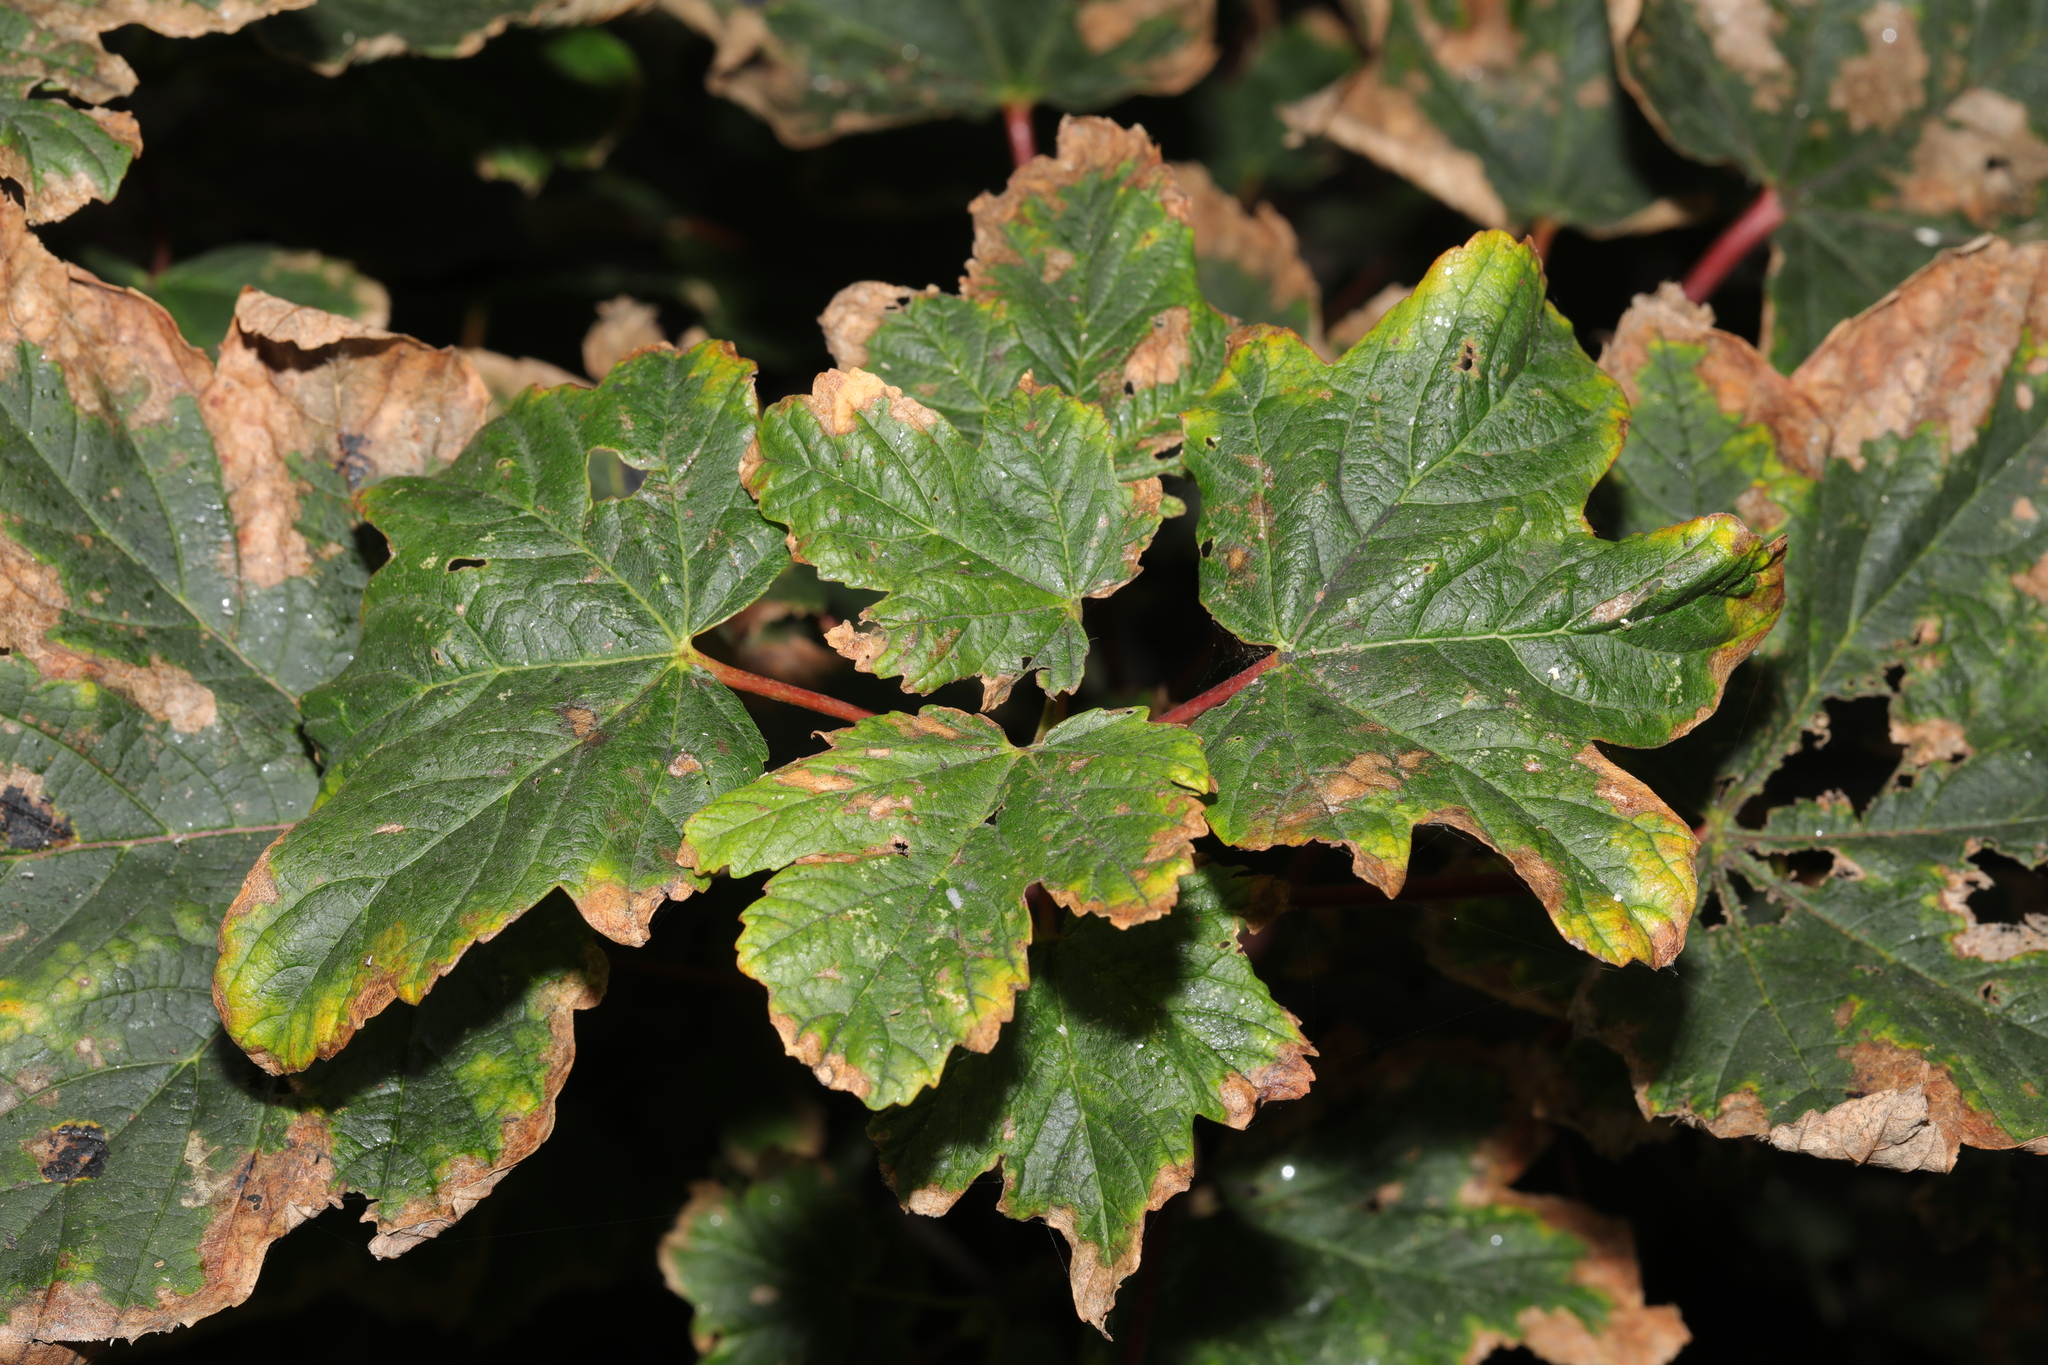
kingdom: Plantae
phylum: Tracheophyta
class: Magnoliopsida
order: Sapindales
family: Sapindaceae
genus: Acer
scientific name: Acer pseudoplatanus
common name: Sycamore
